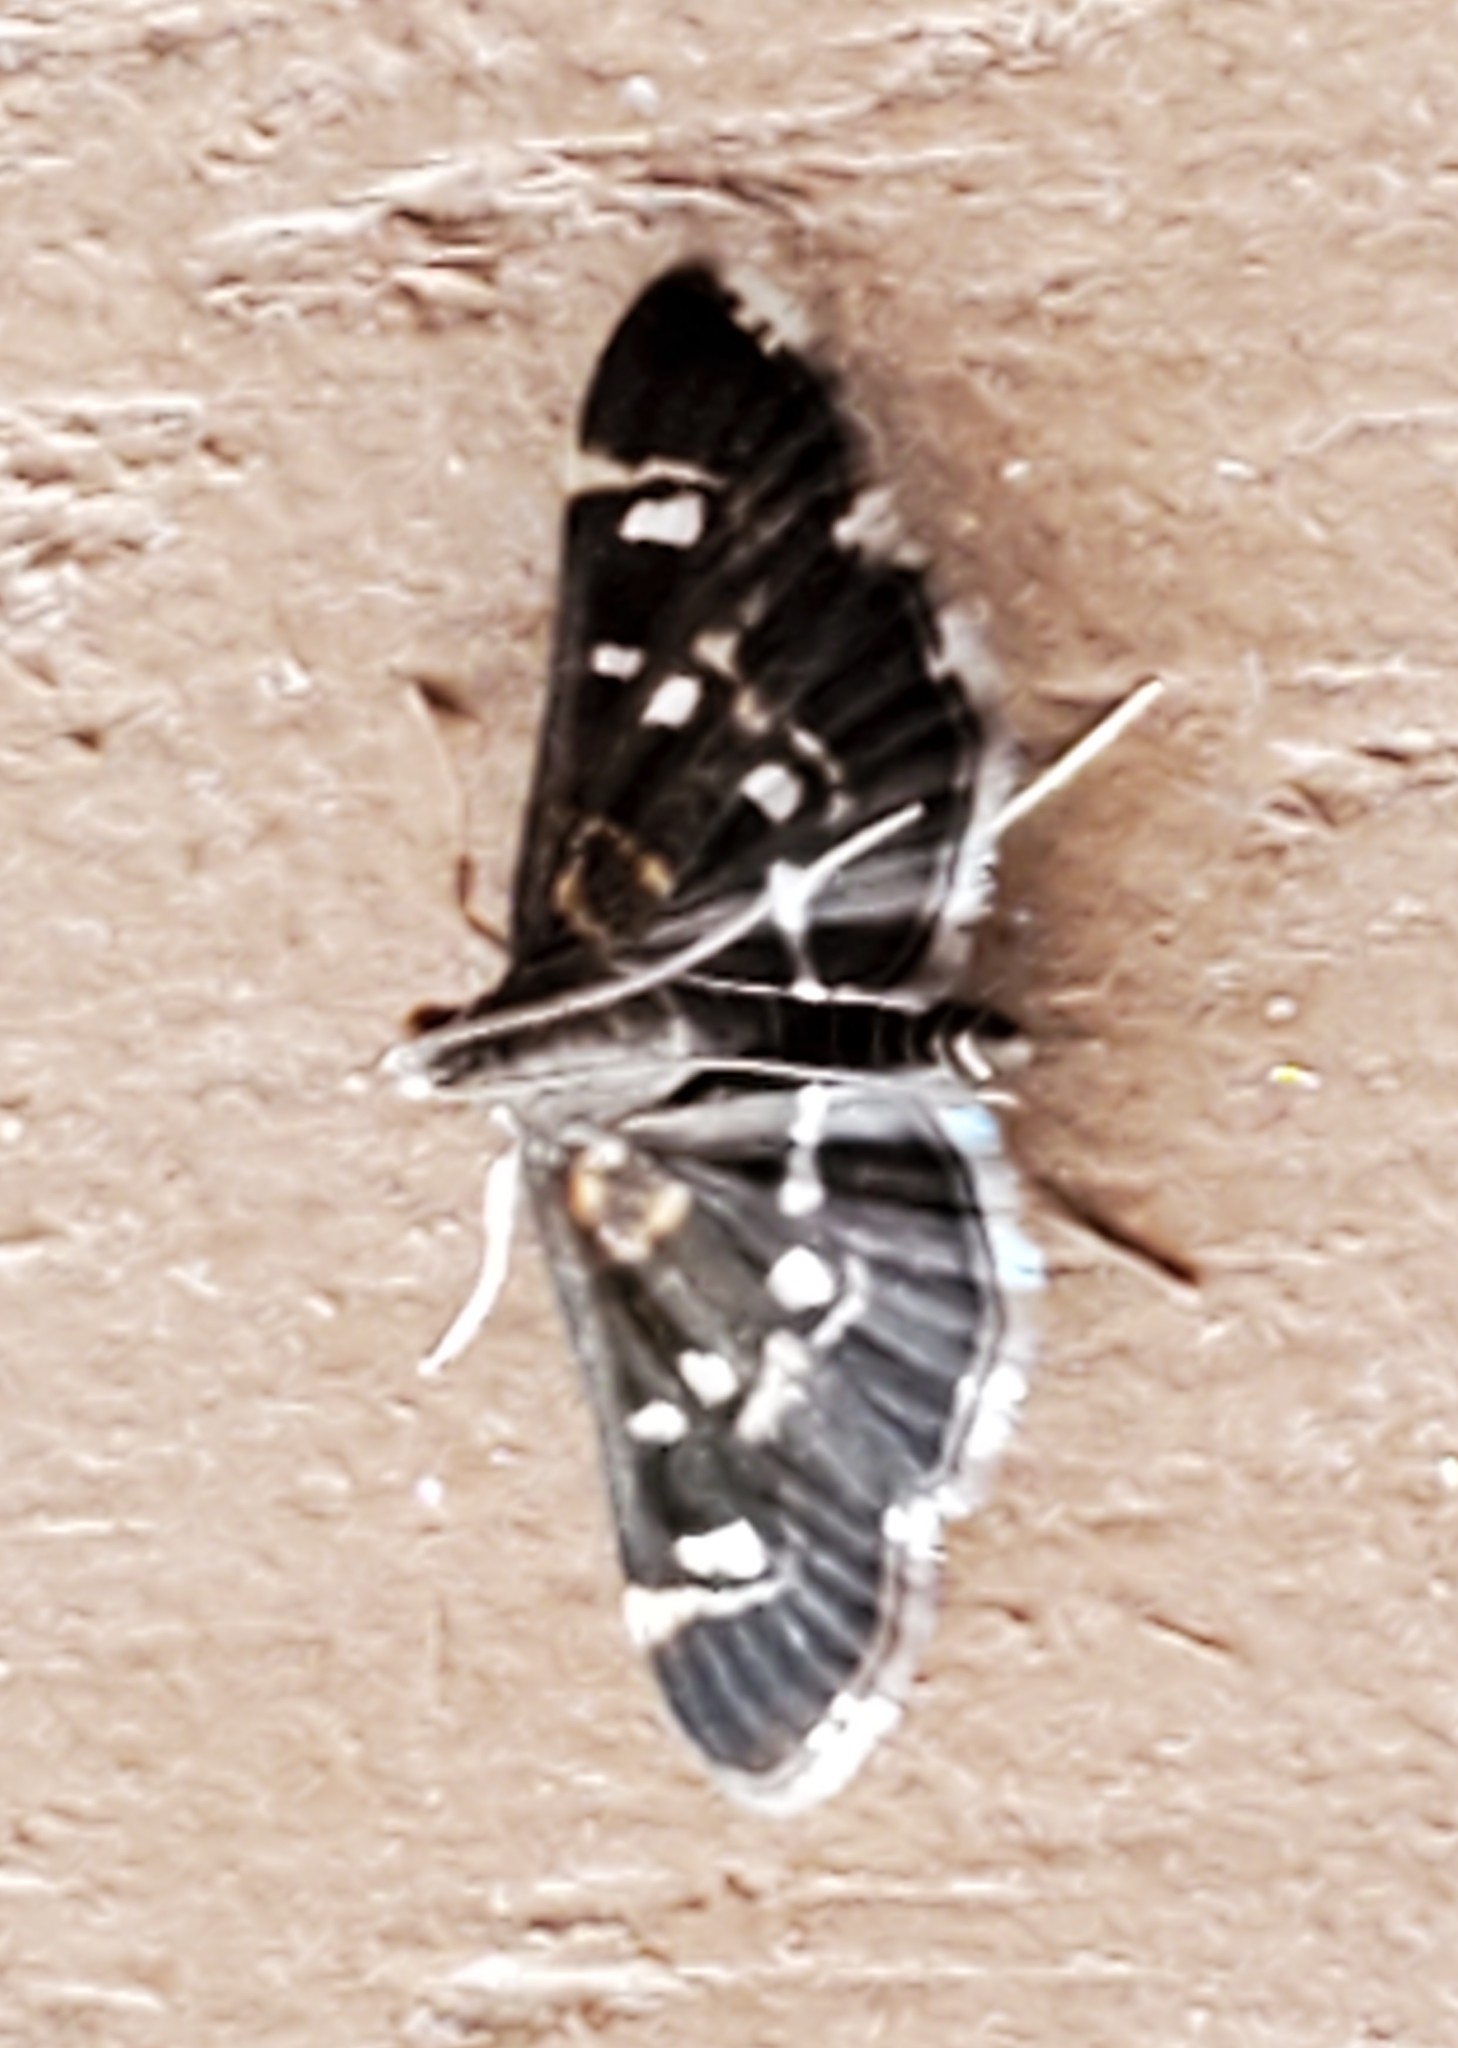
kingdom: Animalia
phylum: Arthropoda
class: Insecta
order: Lepidoptera
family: Crambidae
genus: Diathrausta
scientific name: Diathrausta harlequinalis
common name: Harlequin webworm moth
